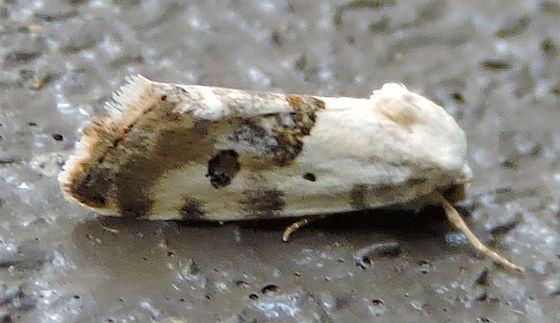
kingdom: Animalia
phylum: Arthropoda
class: Insecta
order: Lepidoptera
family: Noctuidae
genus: Acontia
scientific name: Acontia candefacta
